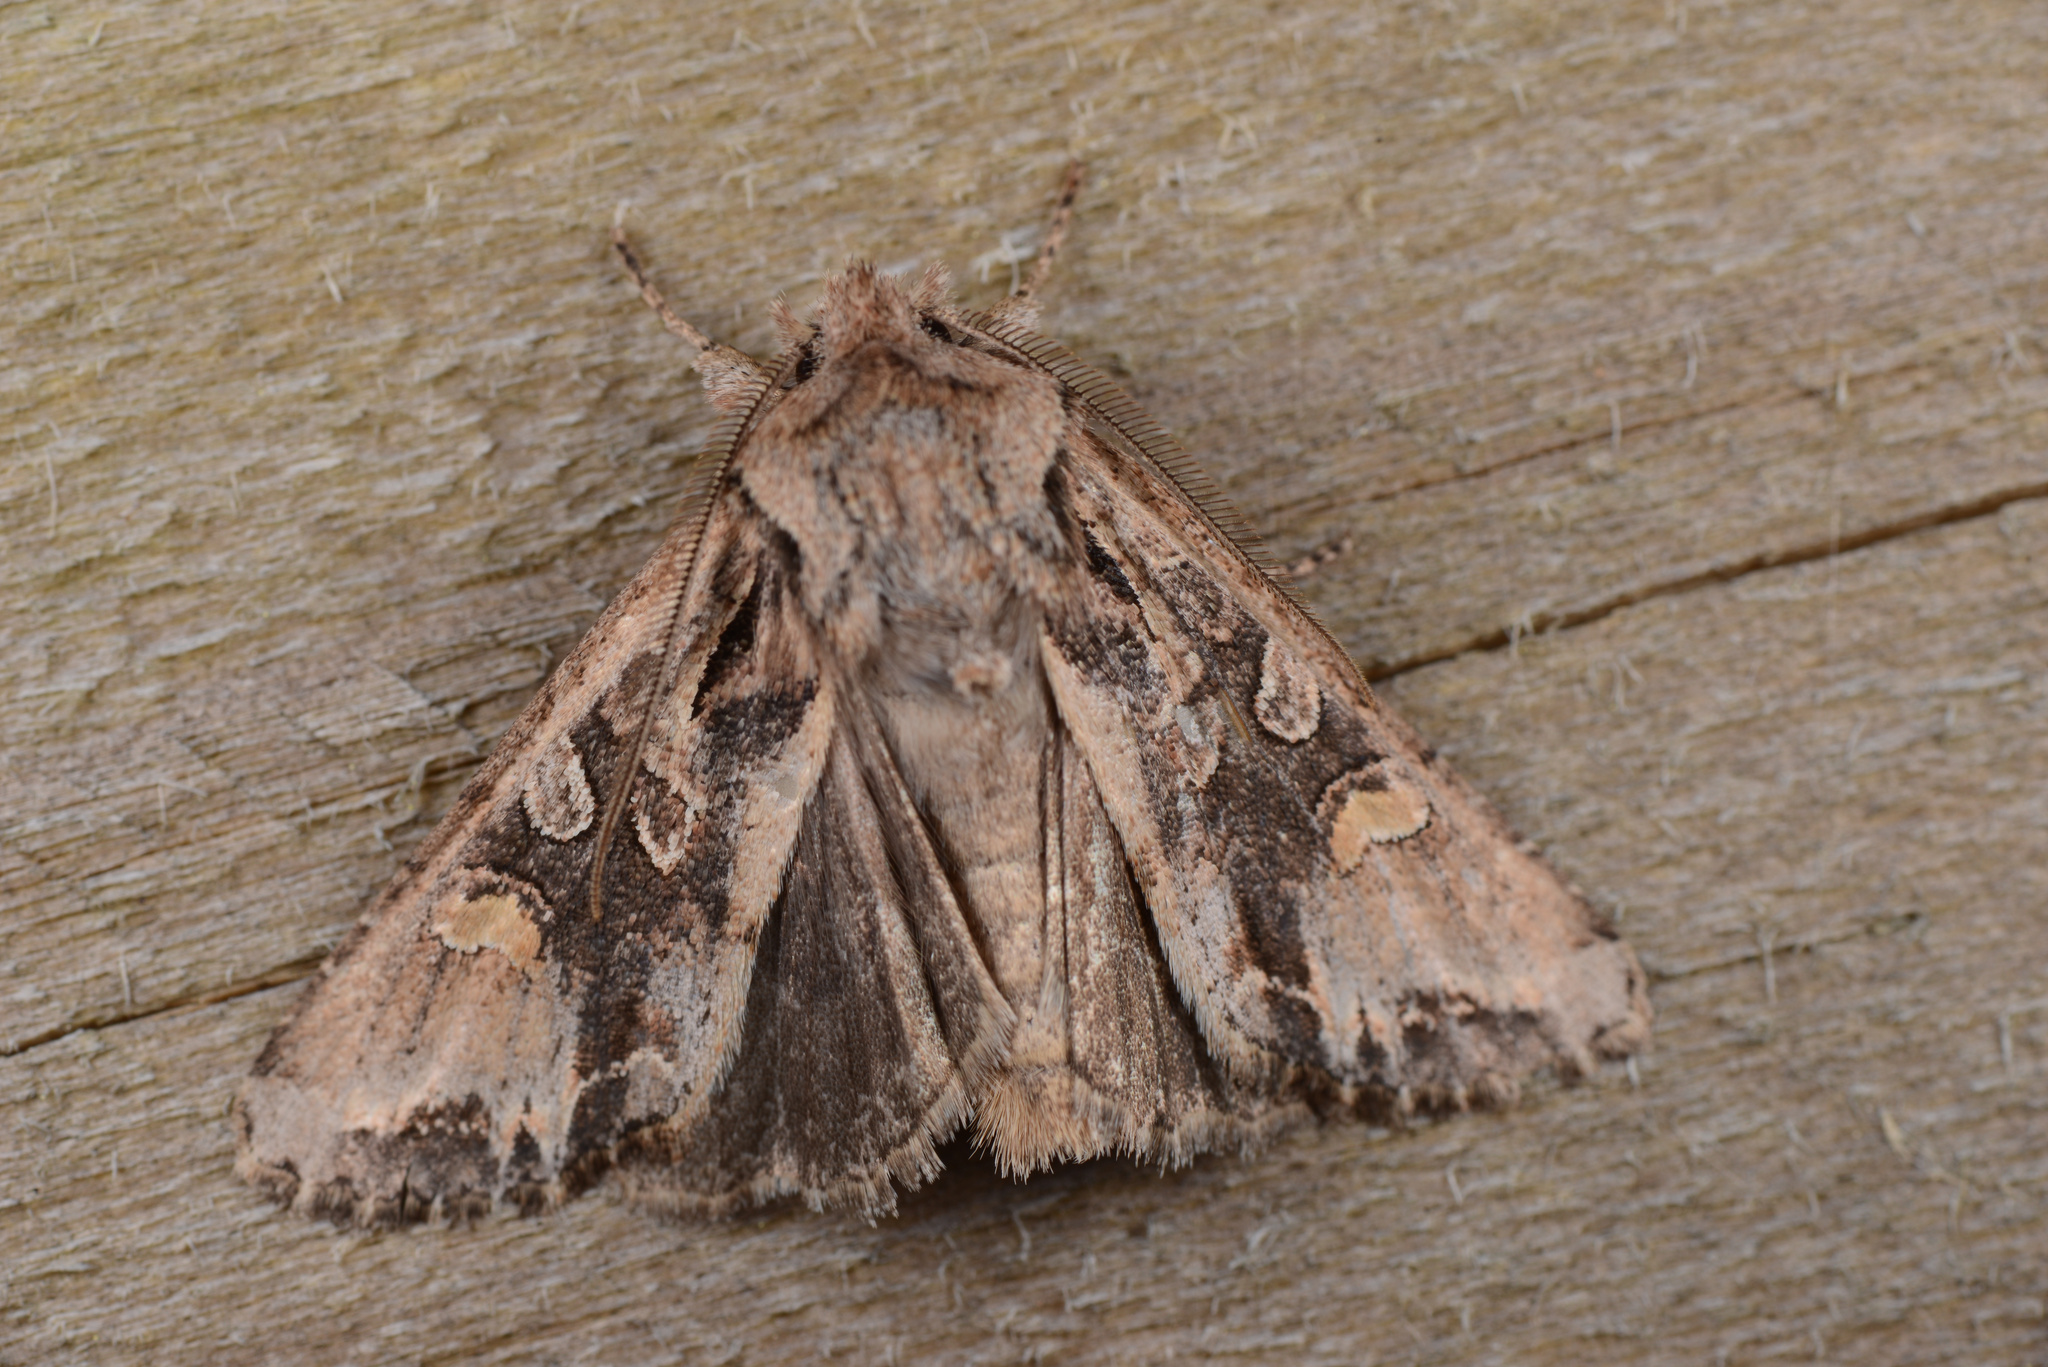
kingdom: Animalia
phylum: Arthropoda
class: Insecta
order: Lepidoptera
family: Noctuidae
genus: Ichneutica
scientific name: Ichneutica
